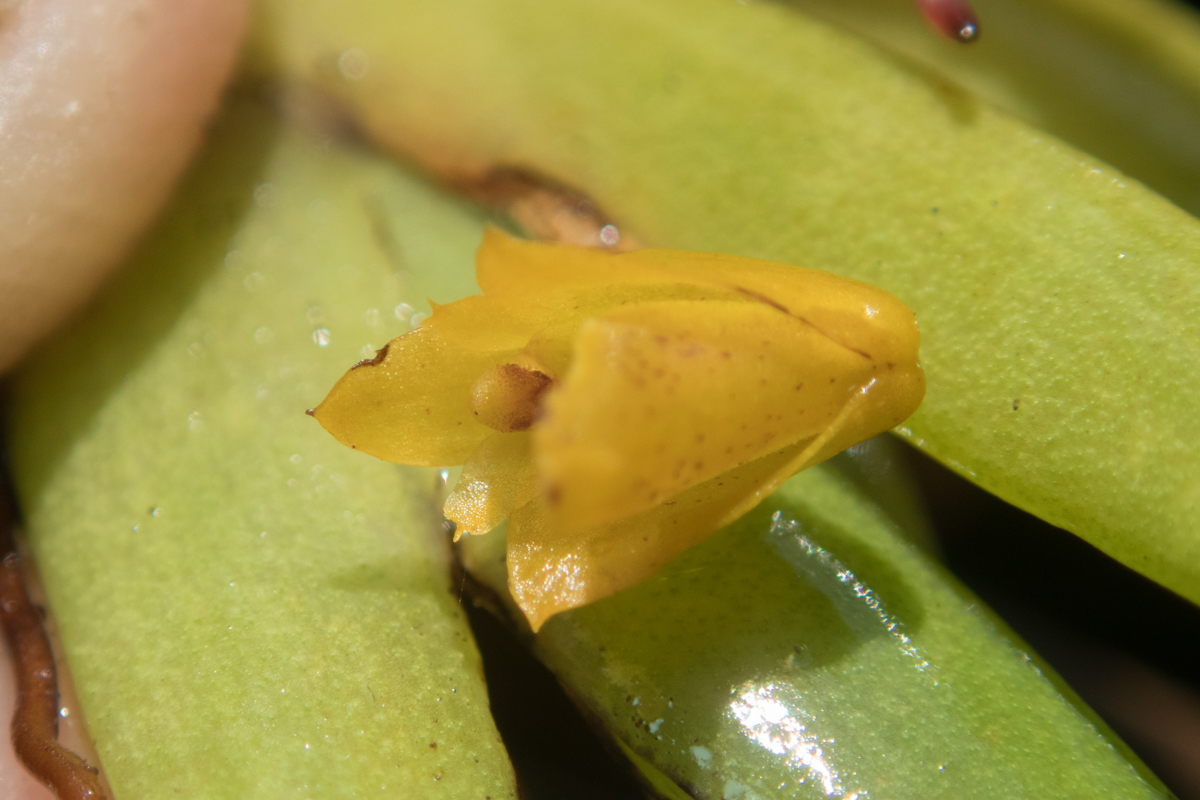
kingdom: Plantae
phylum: Tracheophyta
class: Liliopsida
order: Asparagales
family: Orchidaceae
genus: Oxystophyllum
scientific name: Oxystophyllum carnosum
